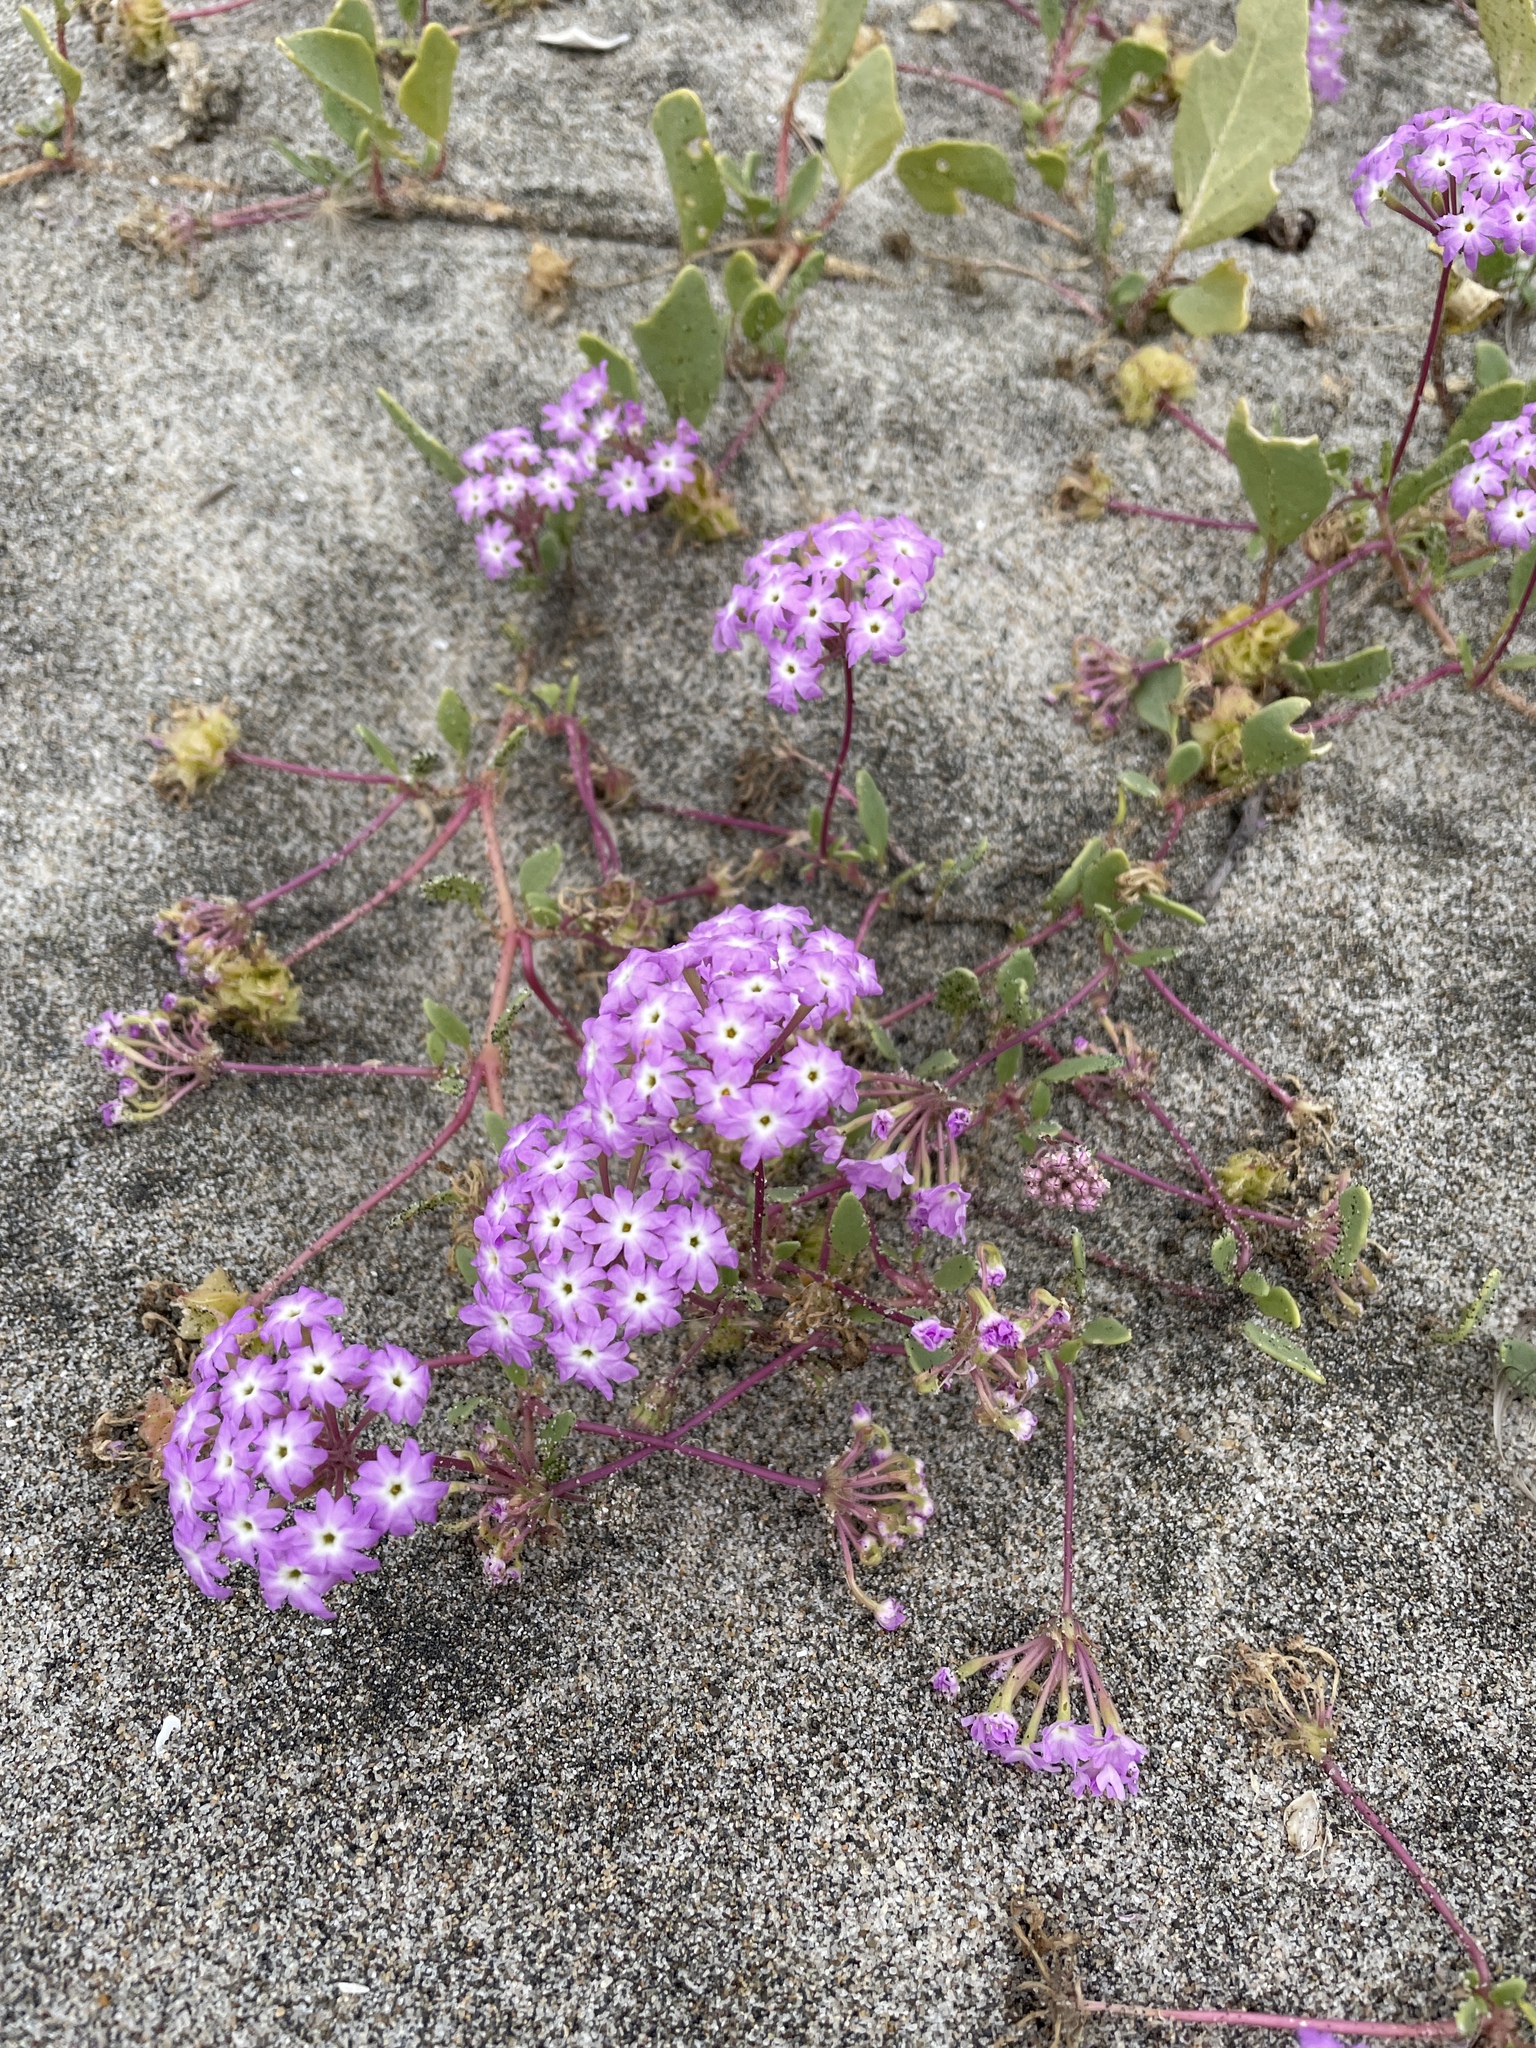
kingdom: Plantae
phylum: Tracheophyta
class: Magnoliopsida
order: Caryophyllales
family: Nyctaginaceae
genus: Abronia
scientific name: Abronia umbellata
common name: Sand-verbena
